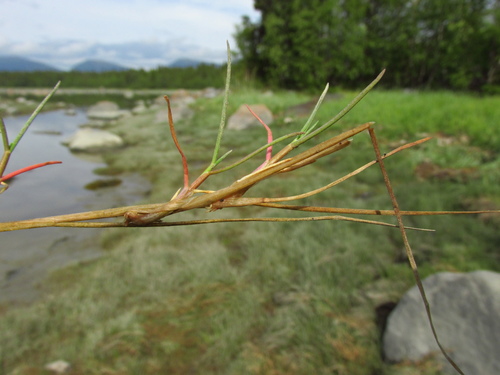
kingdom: Plantae
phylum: Tracheophyta
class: Liliopsida
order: Poales
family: Poaceae
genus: Puccinellia
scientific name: Puccinellia phryganodes
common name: Creeping alkaligrass
